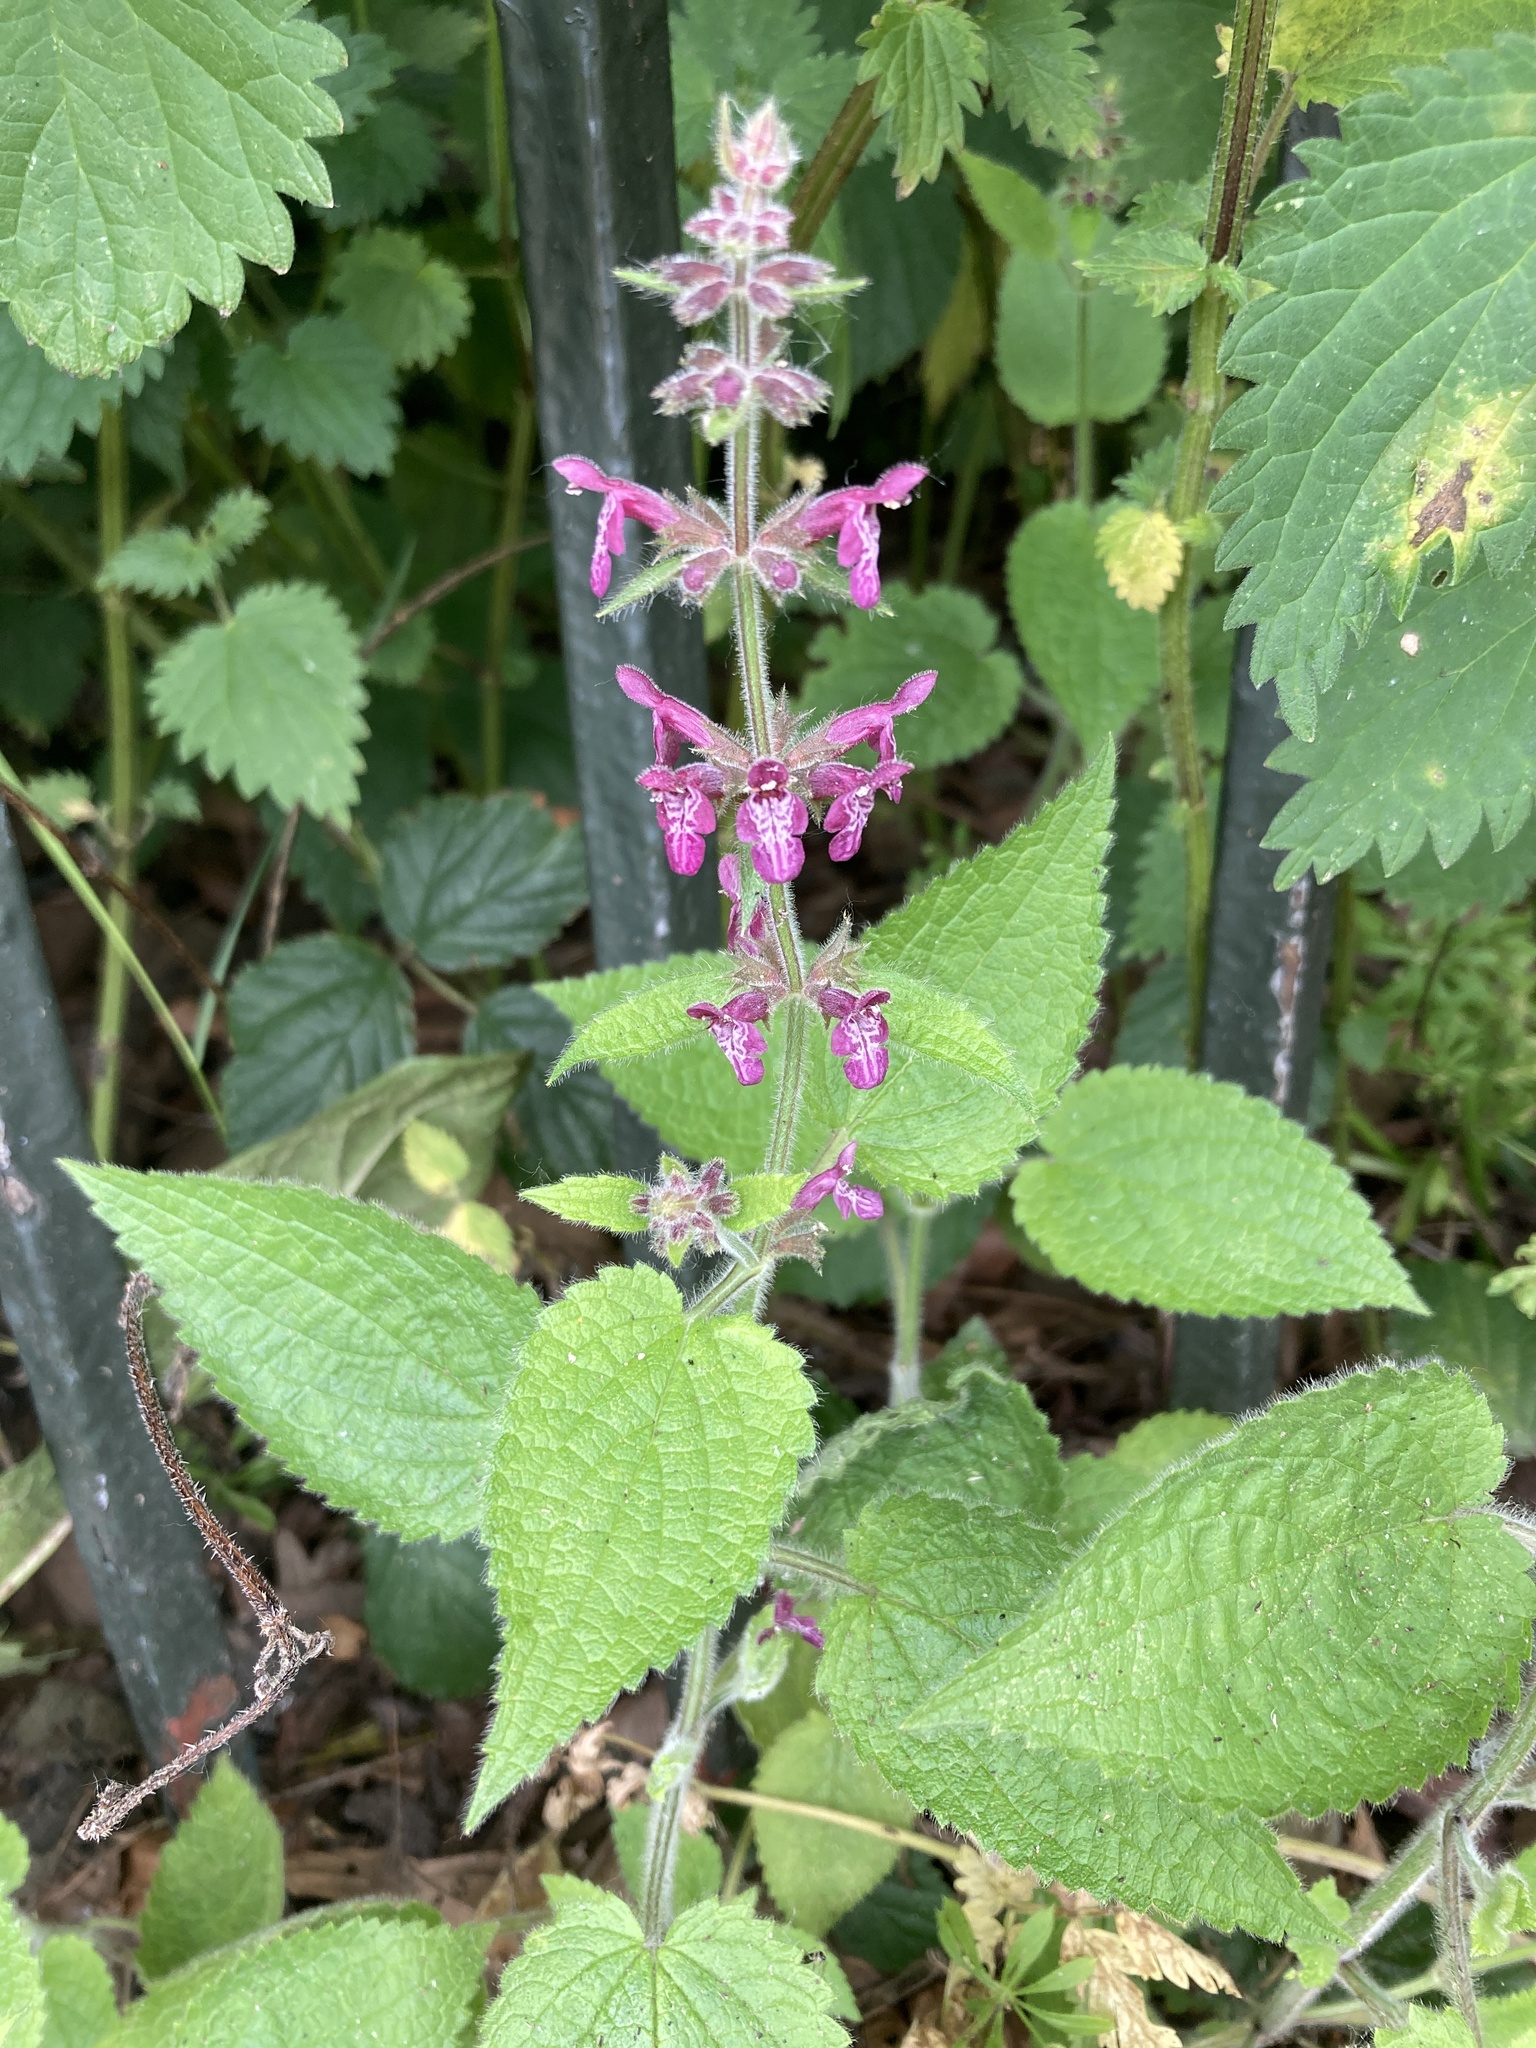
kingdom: Plantae
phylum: Tracheophyta
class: Magnoliopsida
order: Lamiales
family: Lamiaceae
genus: Stachys
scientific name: Stachys sylvatica
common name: Hedge woundwort
